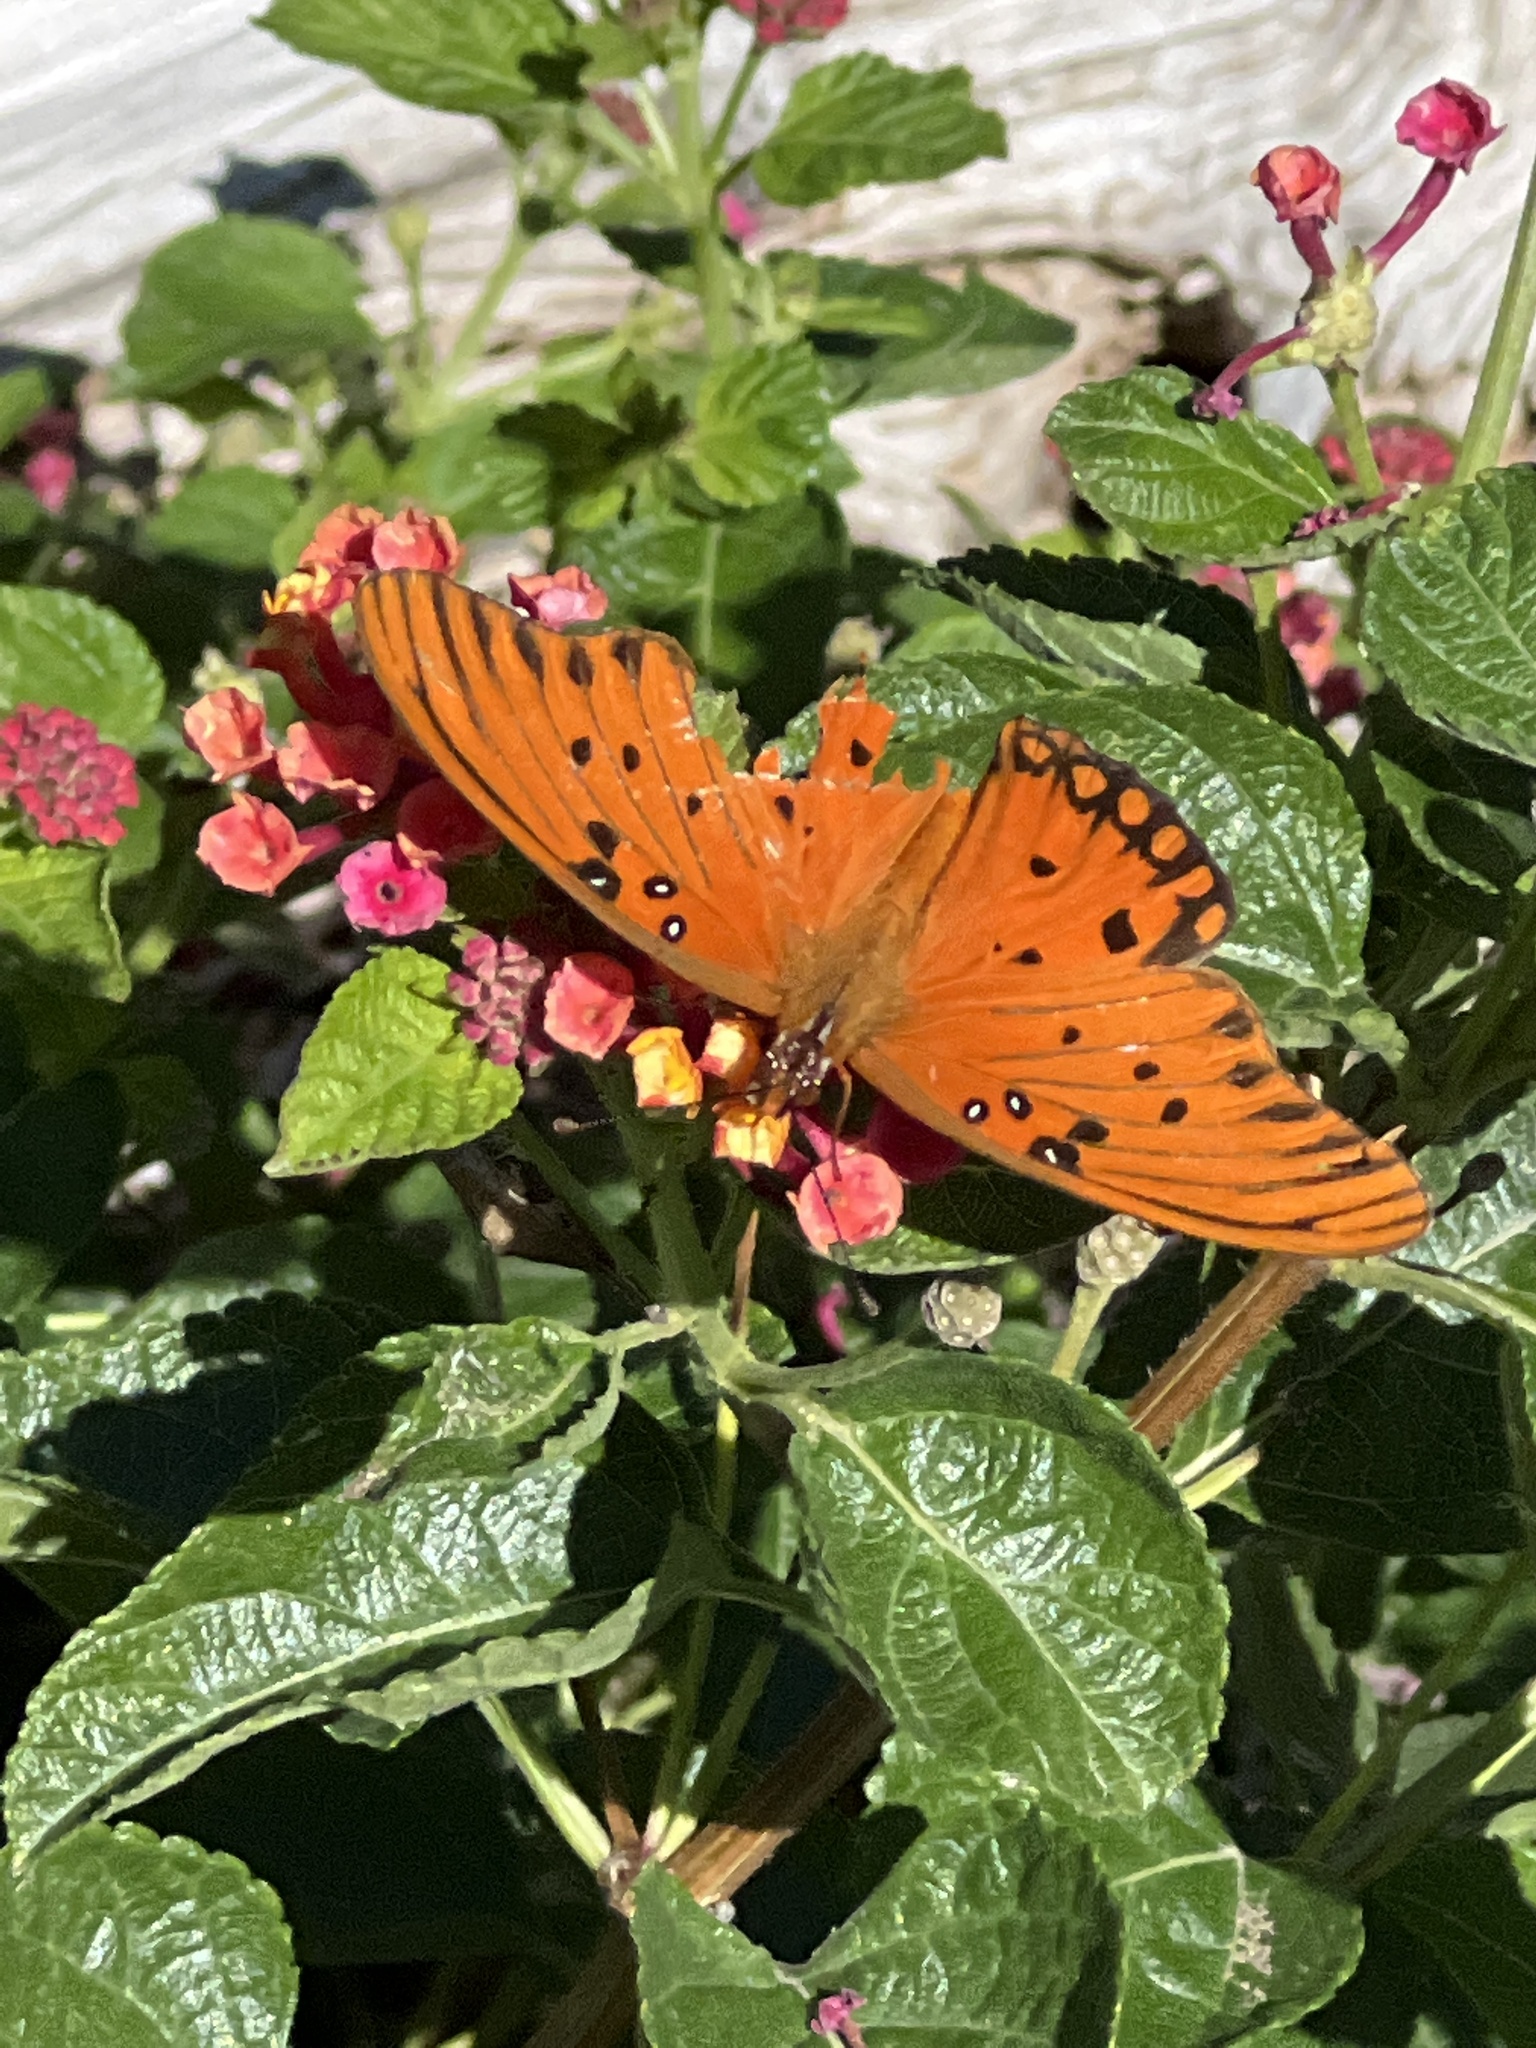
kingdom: Animalia
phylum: Arthropoda
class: Insecta
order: Lepidoptera
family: Nymphalidae
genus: Dione
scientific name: Dione vanillae
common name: Gulf fritillary
